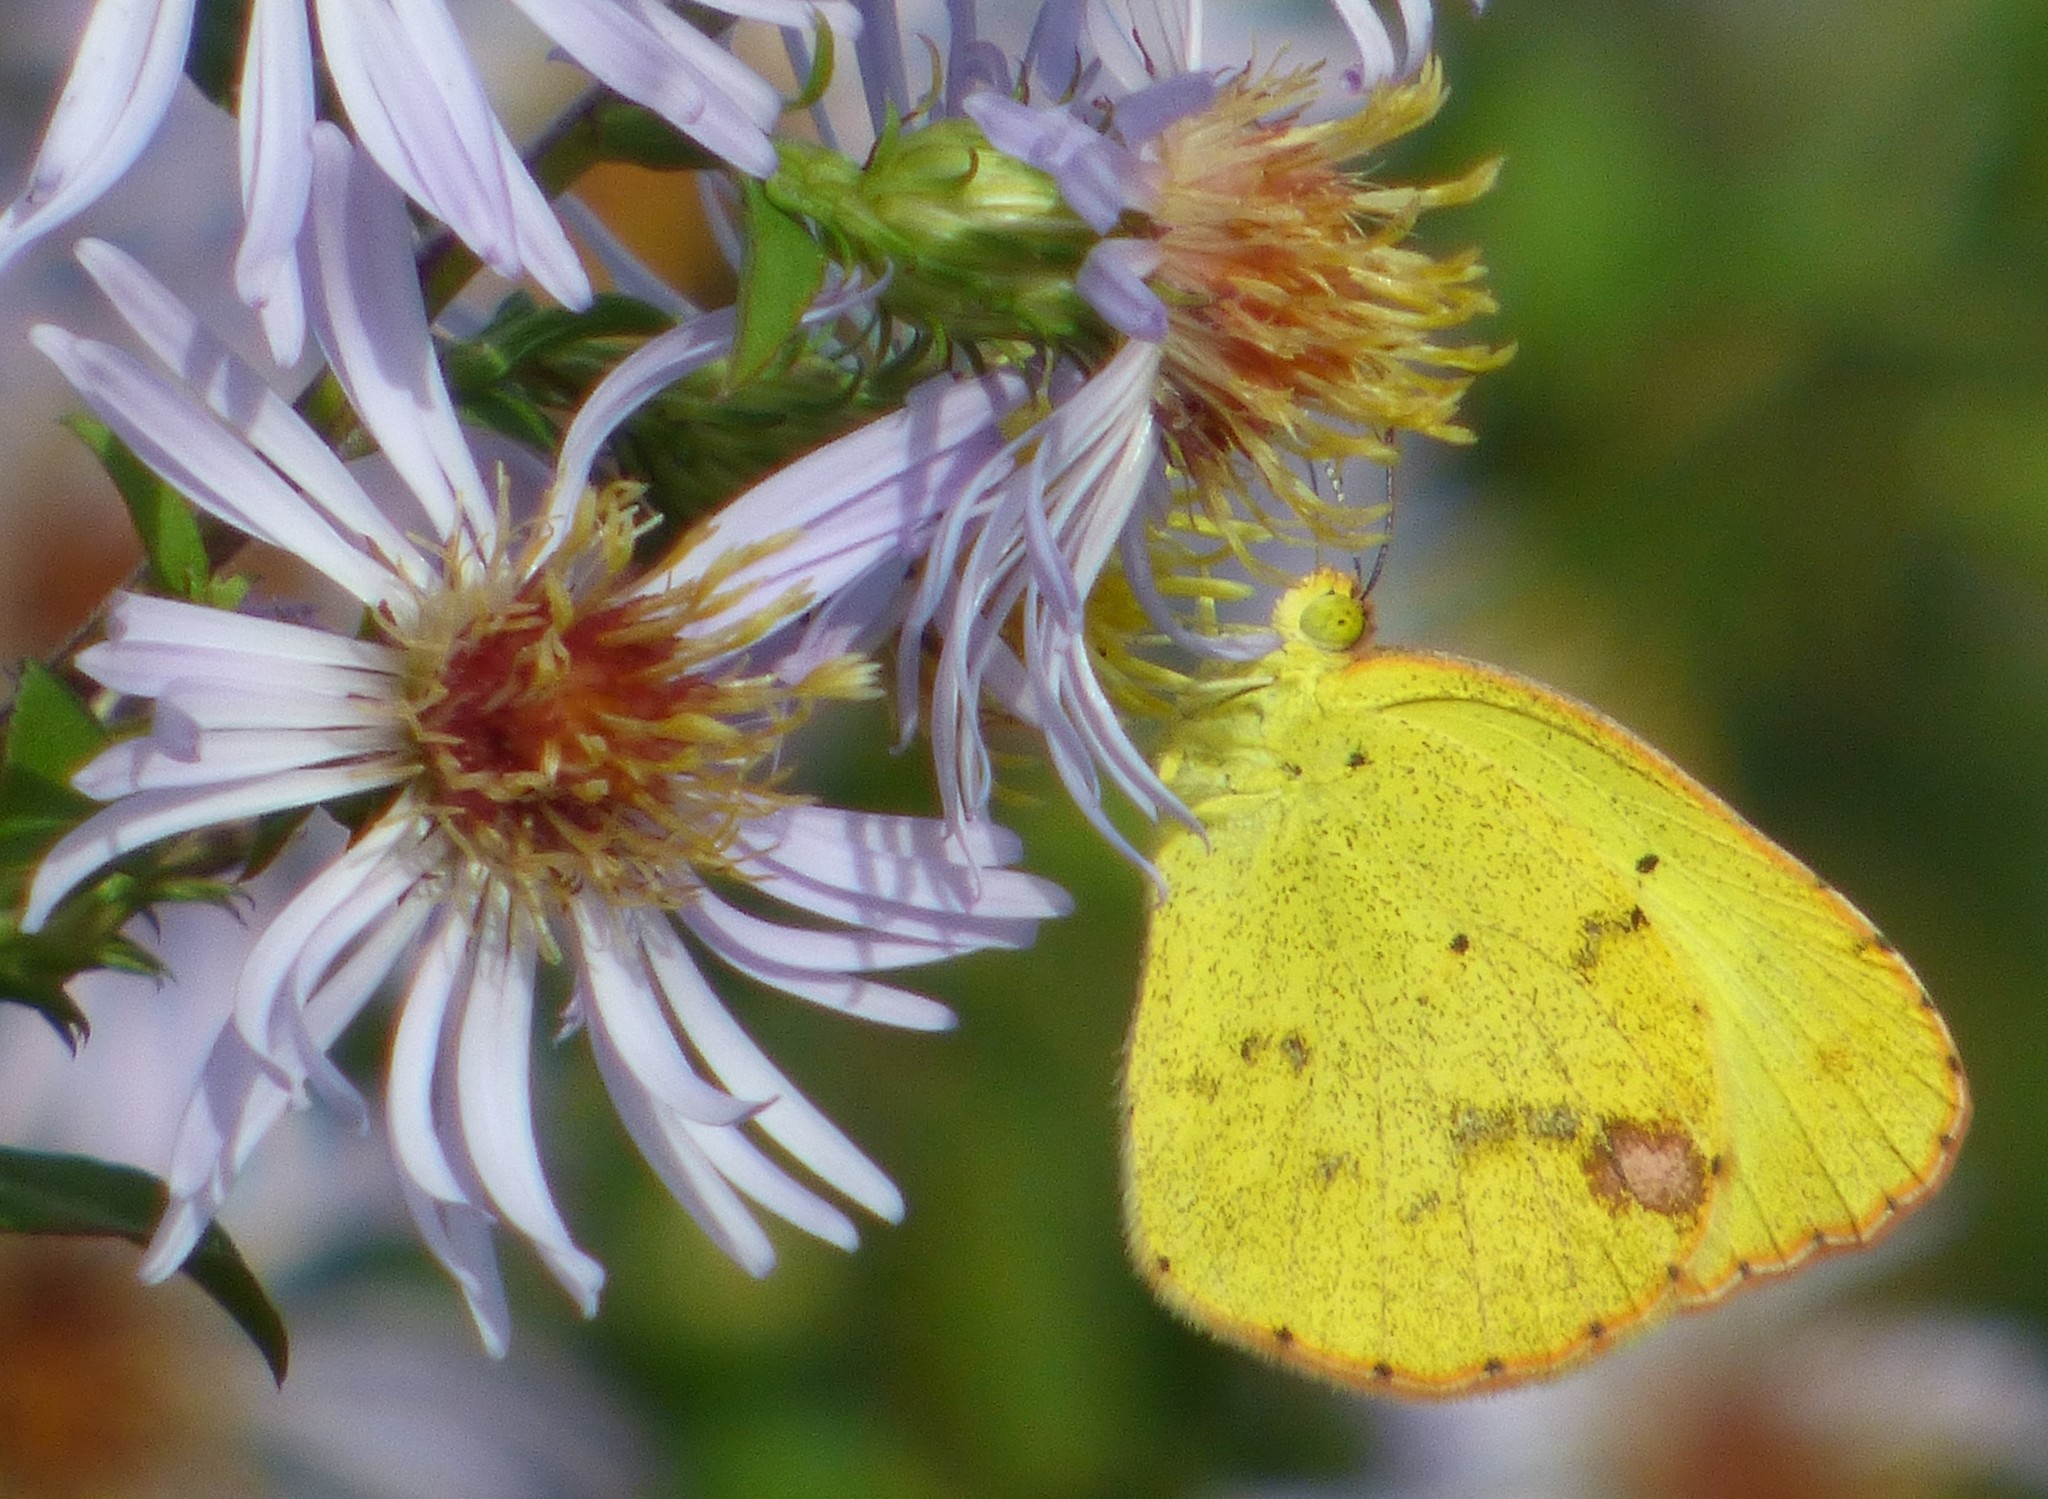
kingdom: Animalia
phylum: Arthropoda
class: Insecta
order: Lepidoptera
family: Pieridae
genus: Pyrisitia
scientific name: Pyrisitia lisa
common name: Little yellow
